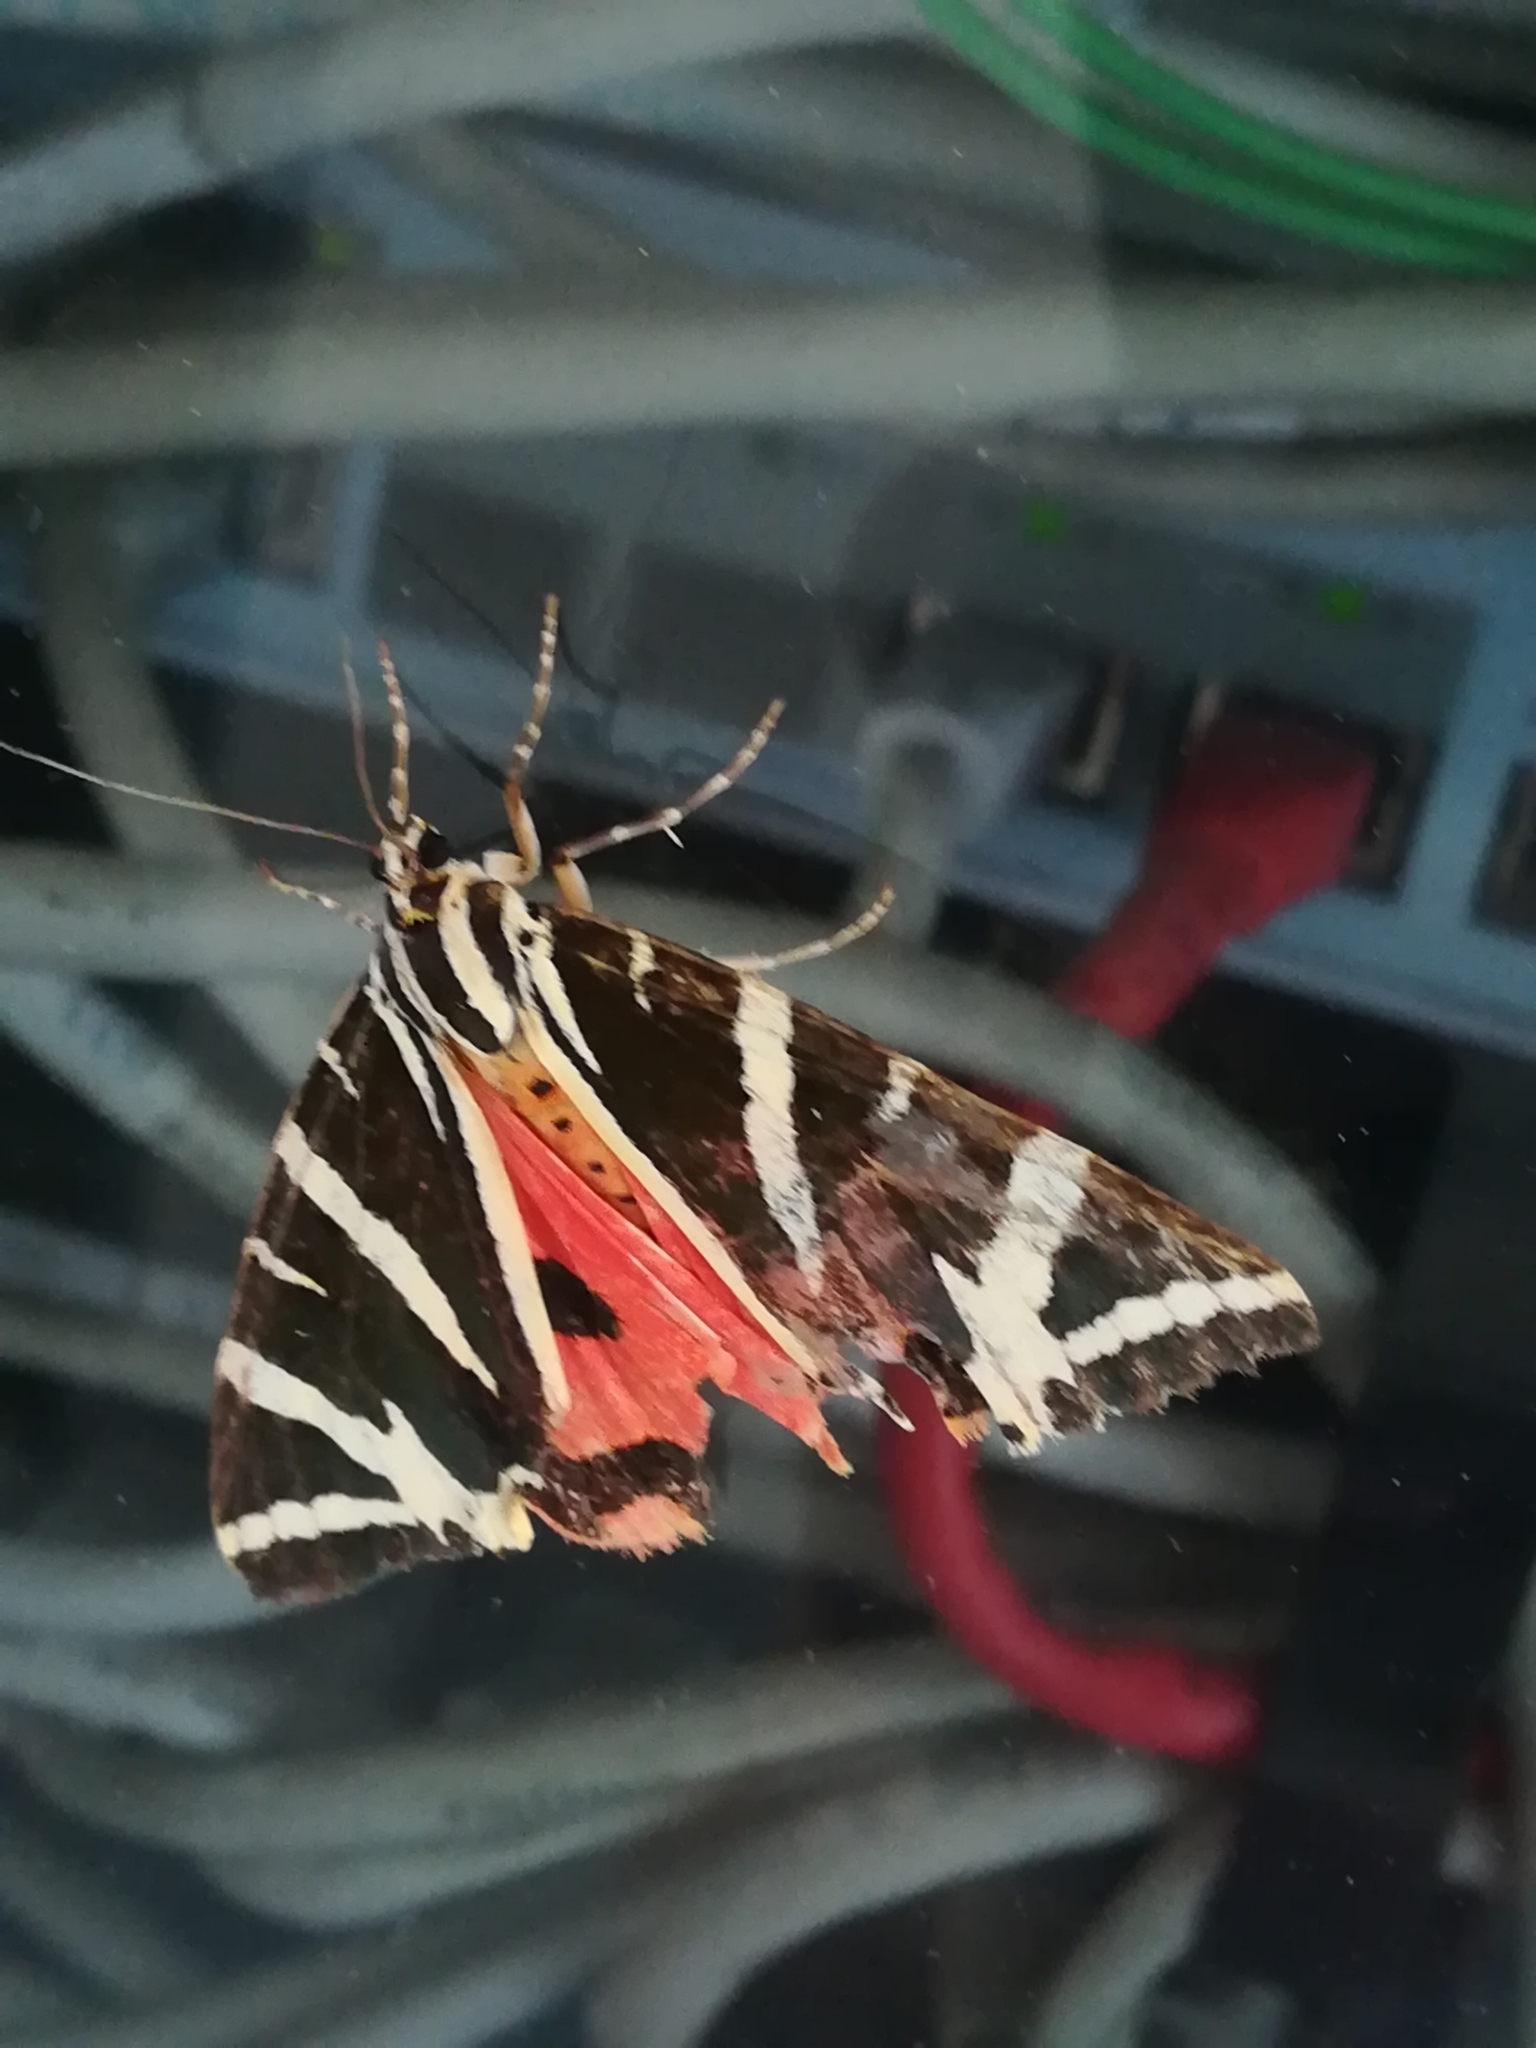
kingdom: Animalia
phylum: Arthropoda
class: Insecta
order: Lepidoptera
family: Erebidae
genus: Euplagia
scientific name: Euplagia quadripunctaria
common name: Jersey tiger
